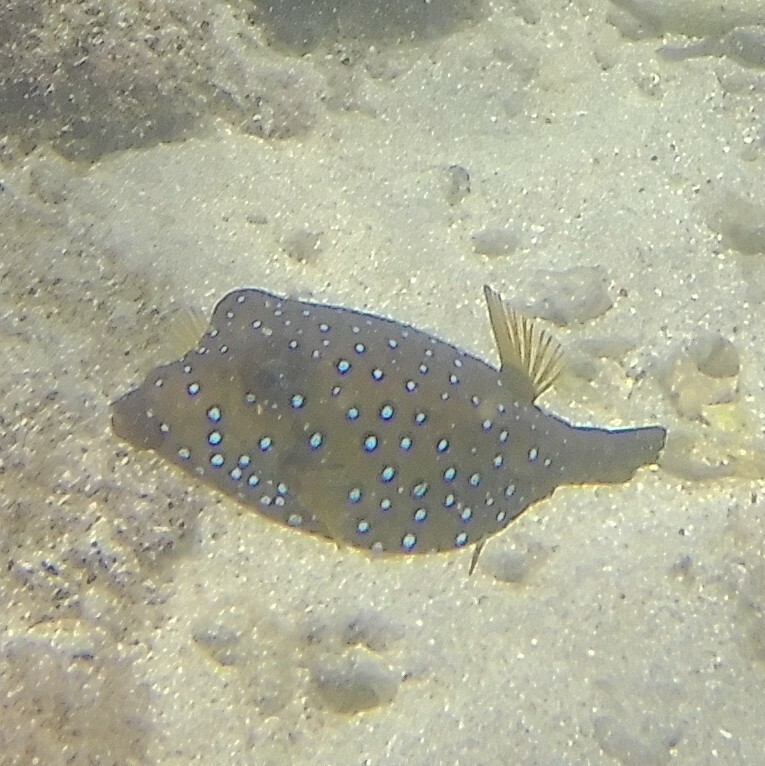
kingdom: Animalia
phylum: Chordata
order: Tetraodontiformes
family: Ostraciidae
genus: Ostracion
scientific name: Ostracion cubicus
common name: Cube trunkfish
